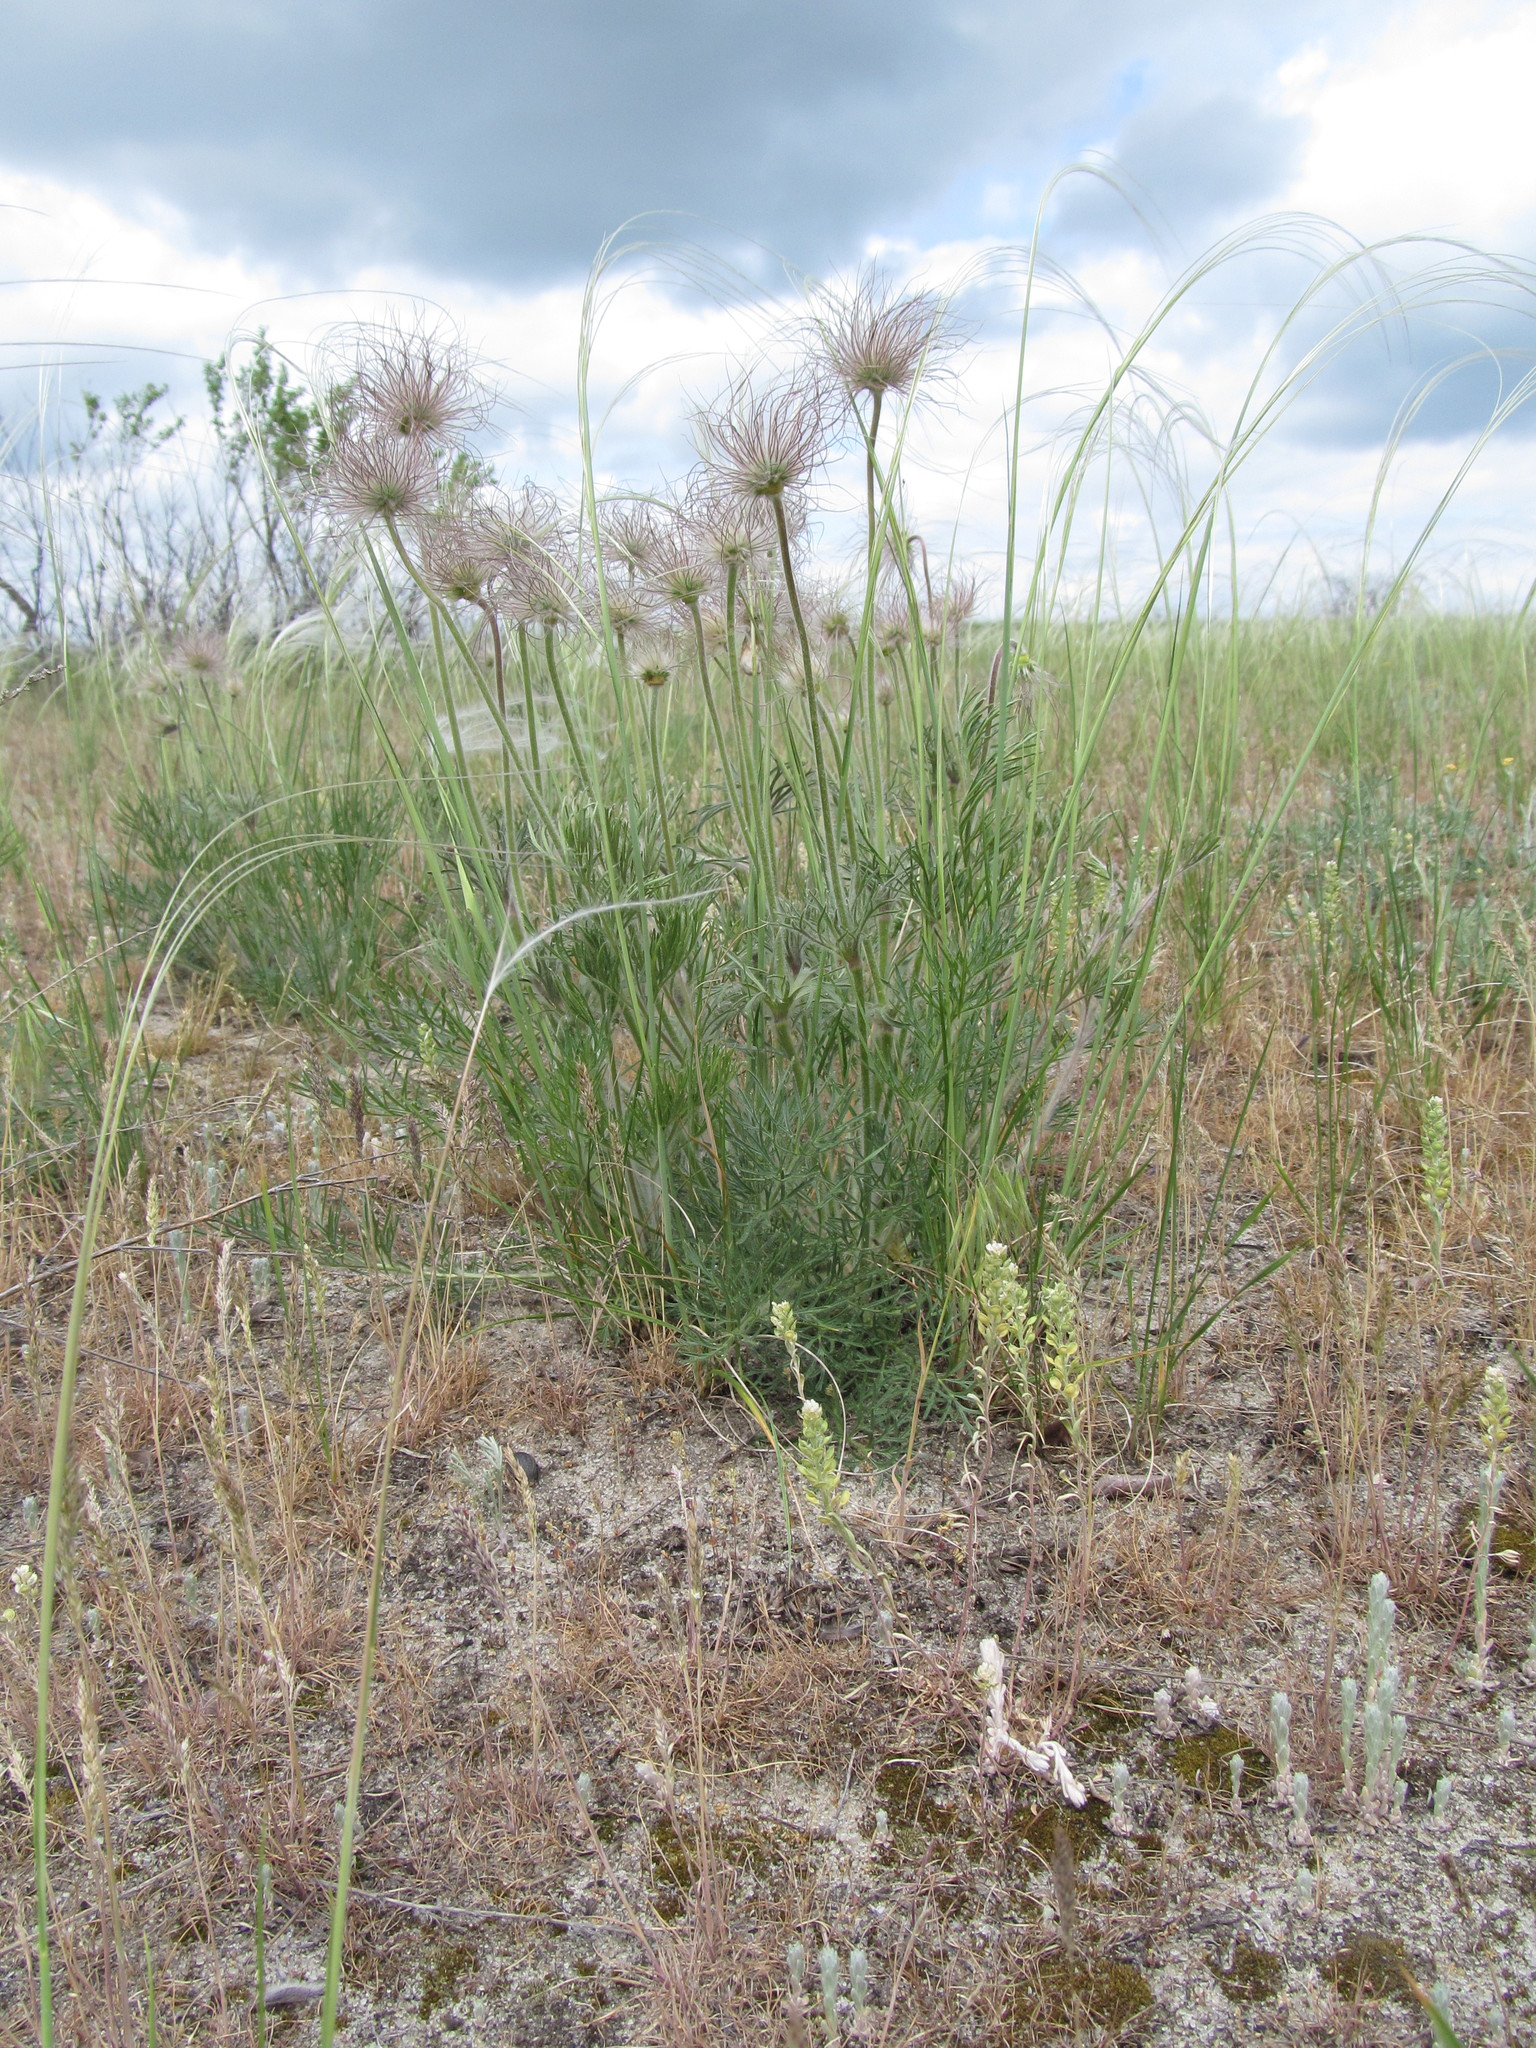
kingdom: Plantae
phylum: Tracheophyta
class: Magnoliopsida
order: Ranunculales
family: Ranunculaceae
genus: Pulsatilla
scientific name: Pulsatilla pratensis
